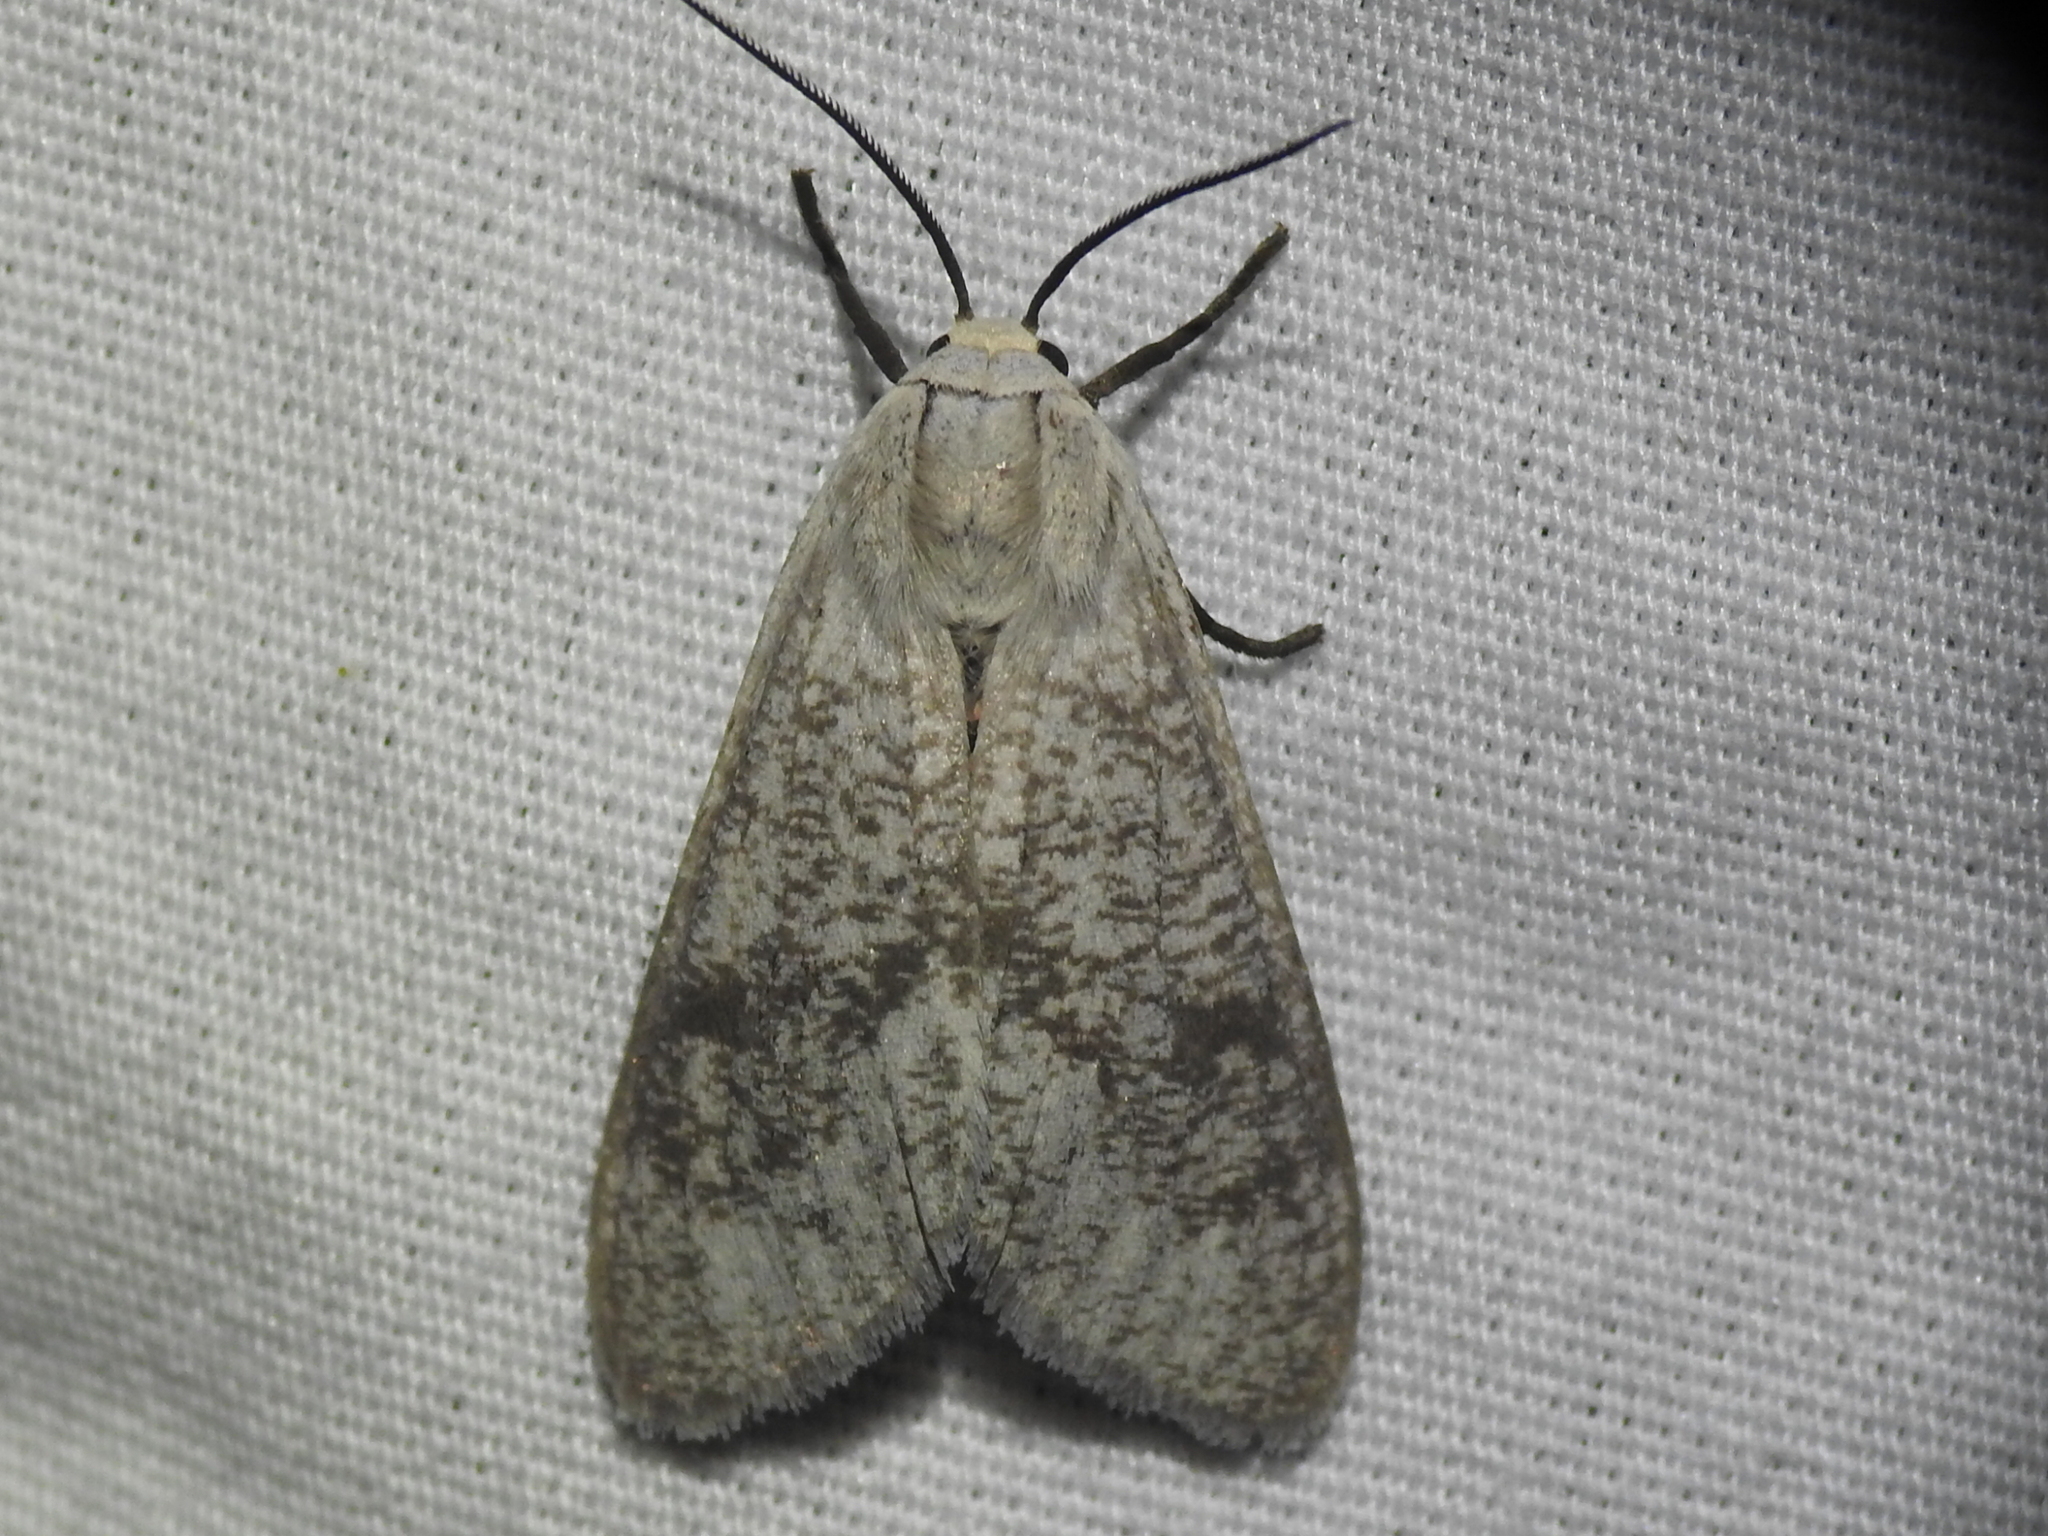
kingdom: Animalia
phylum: Arthropoda
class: Insecta
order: Lepidoptera
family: Erebidae
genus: Euchaetes
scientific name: Euchaetes bolteri
